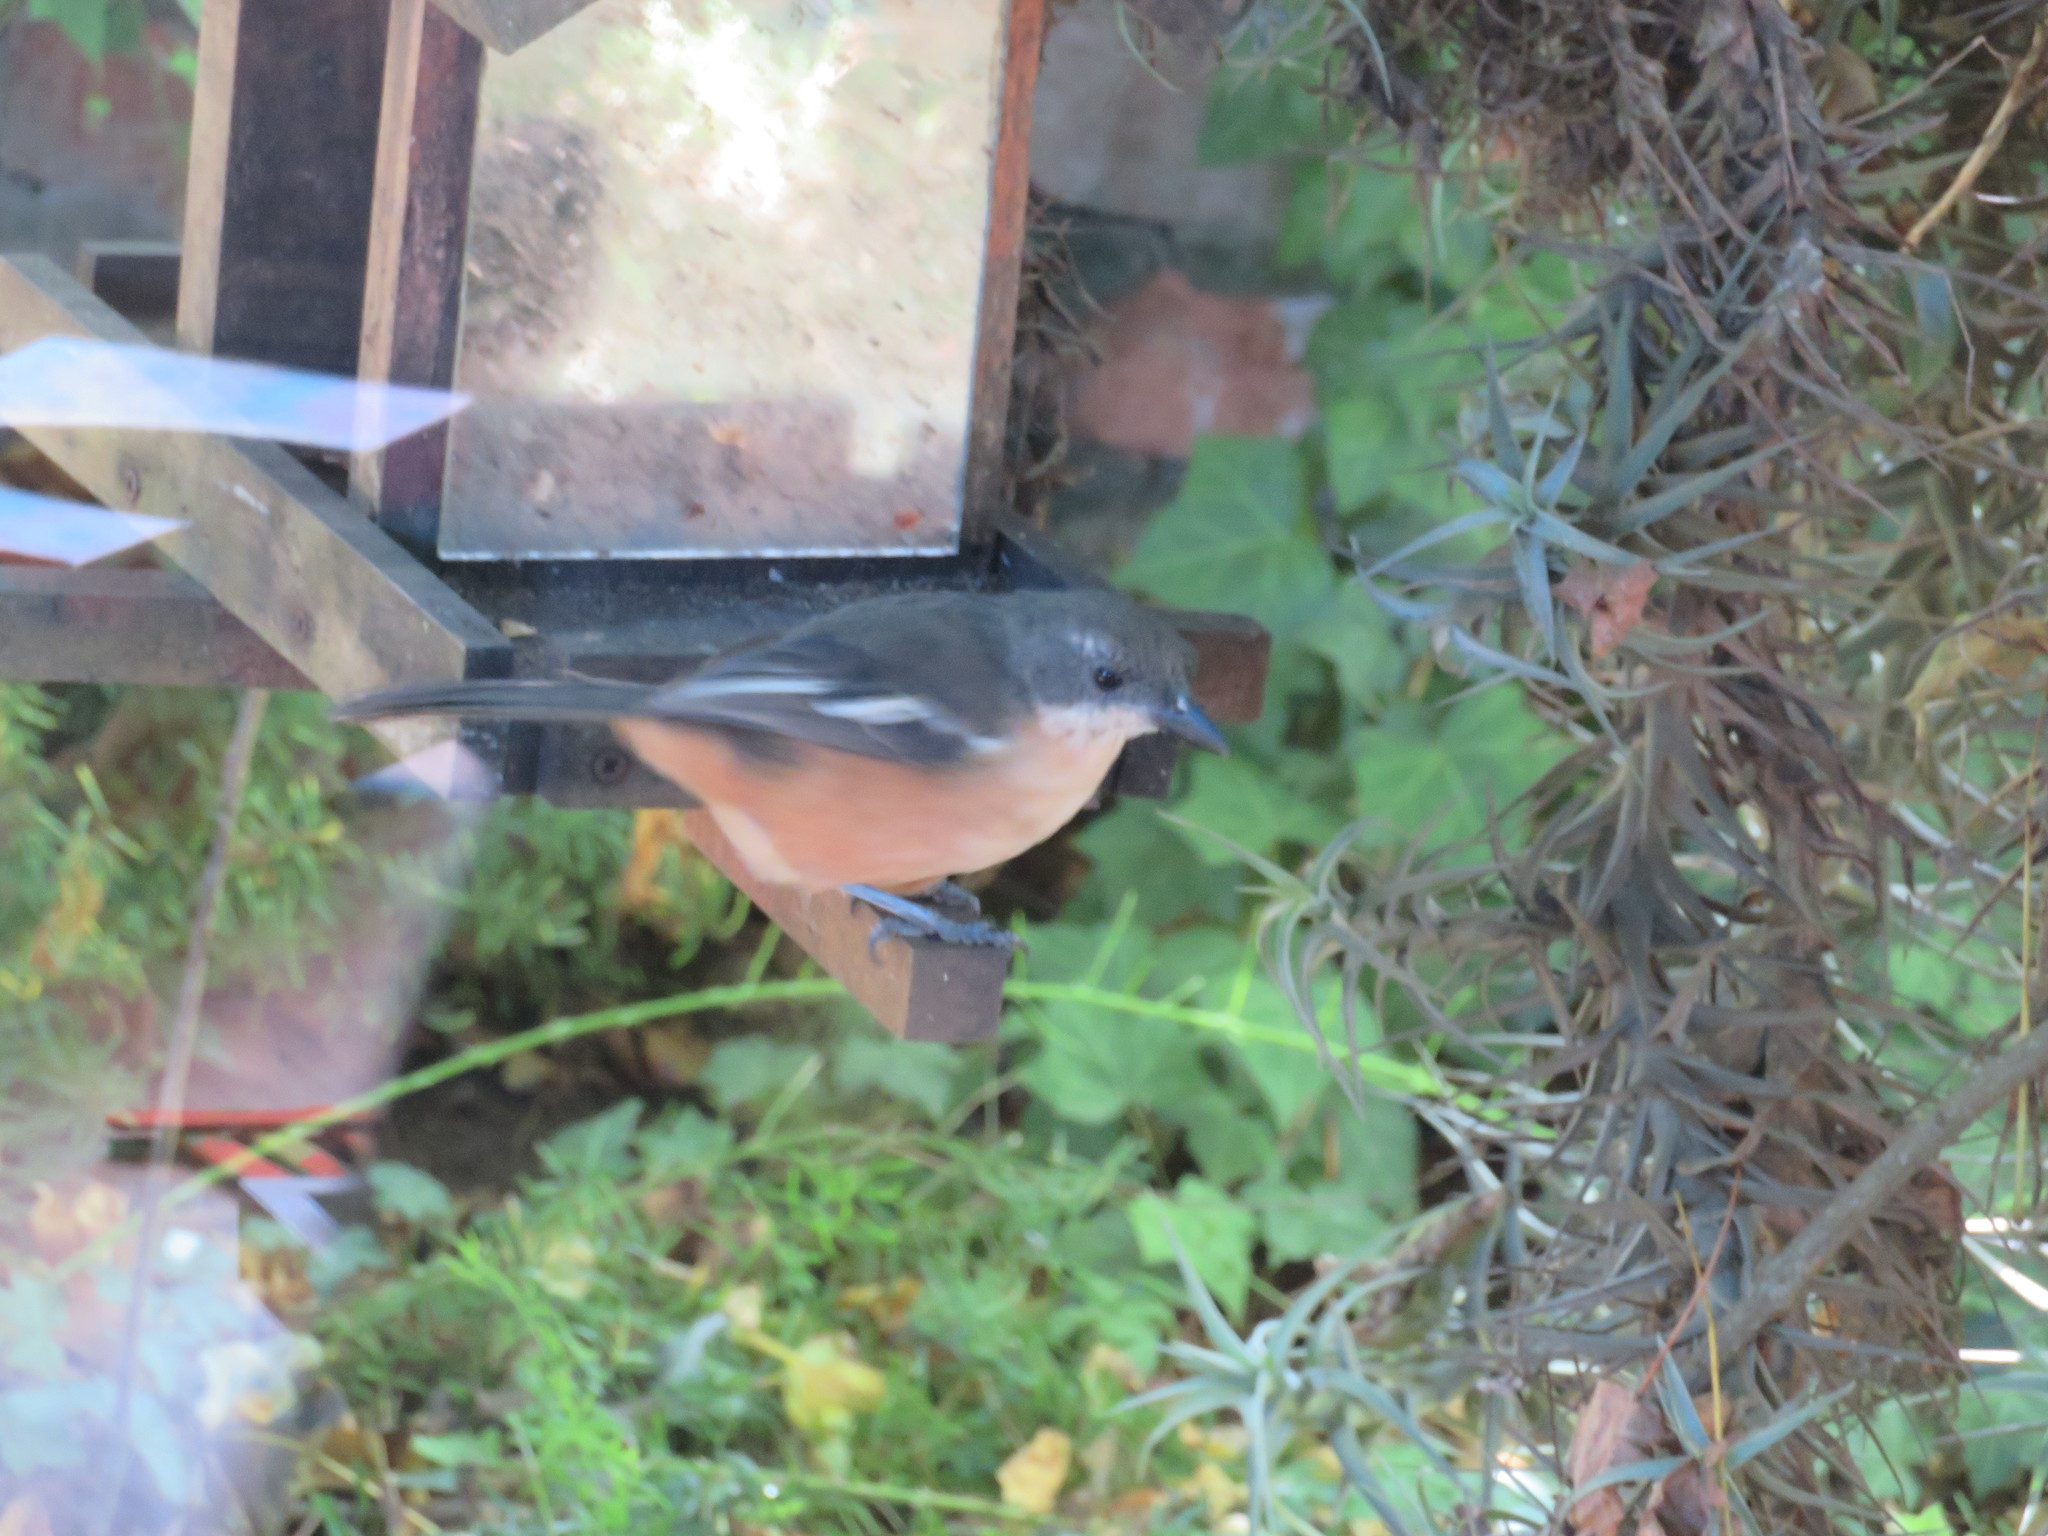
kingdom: Animalia
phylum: Chordata
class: Aves
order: Passeriformes
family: Malaconotidae
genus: Laniarius
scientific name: Laniarius ferrugineus
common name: Southern boubou
